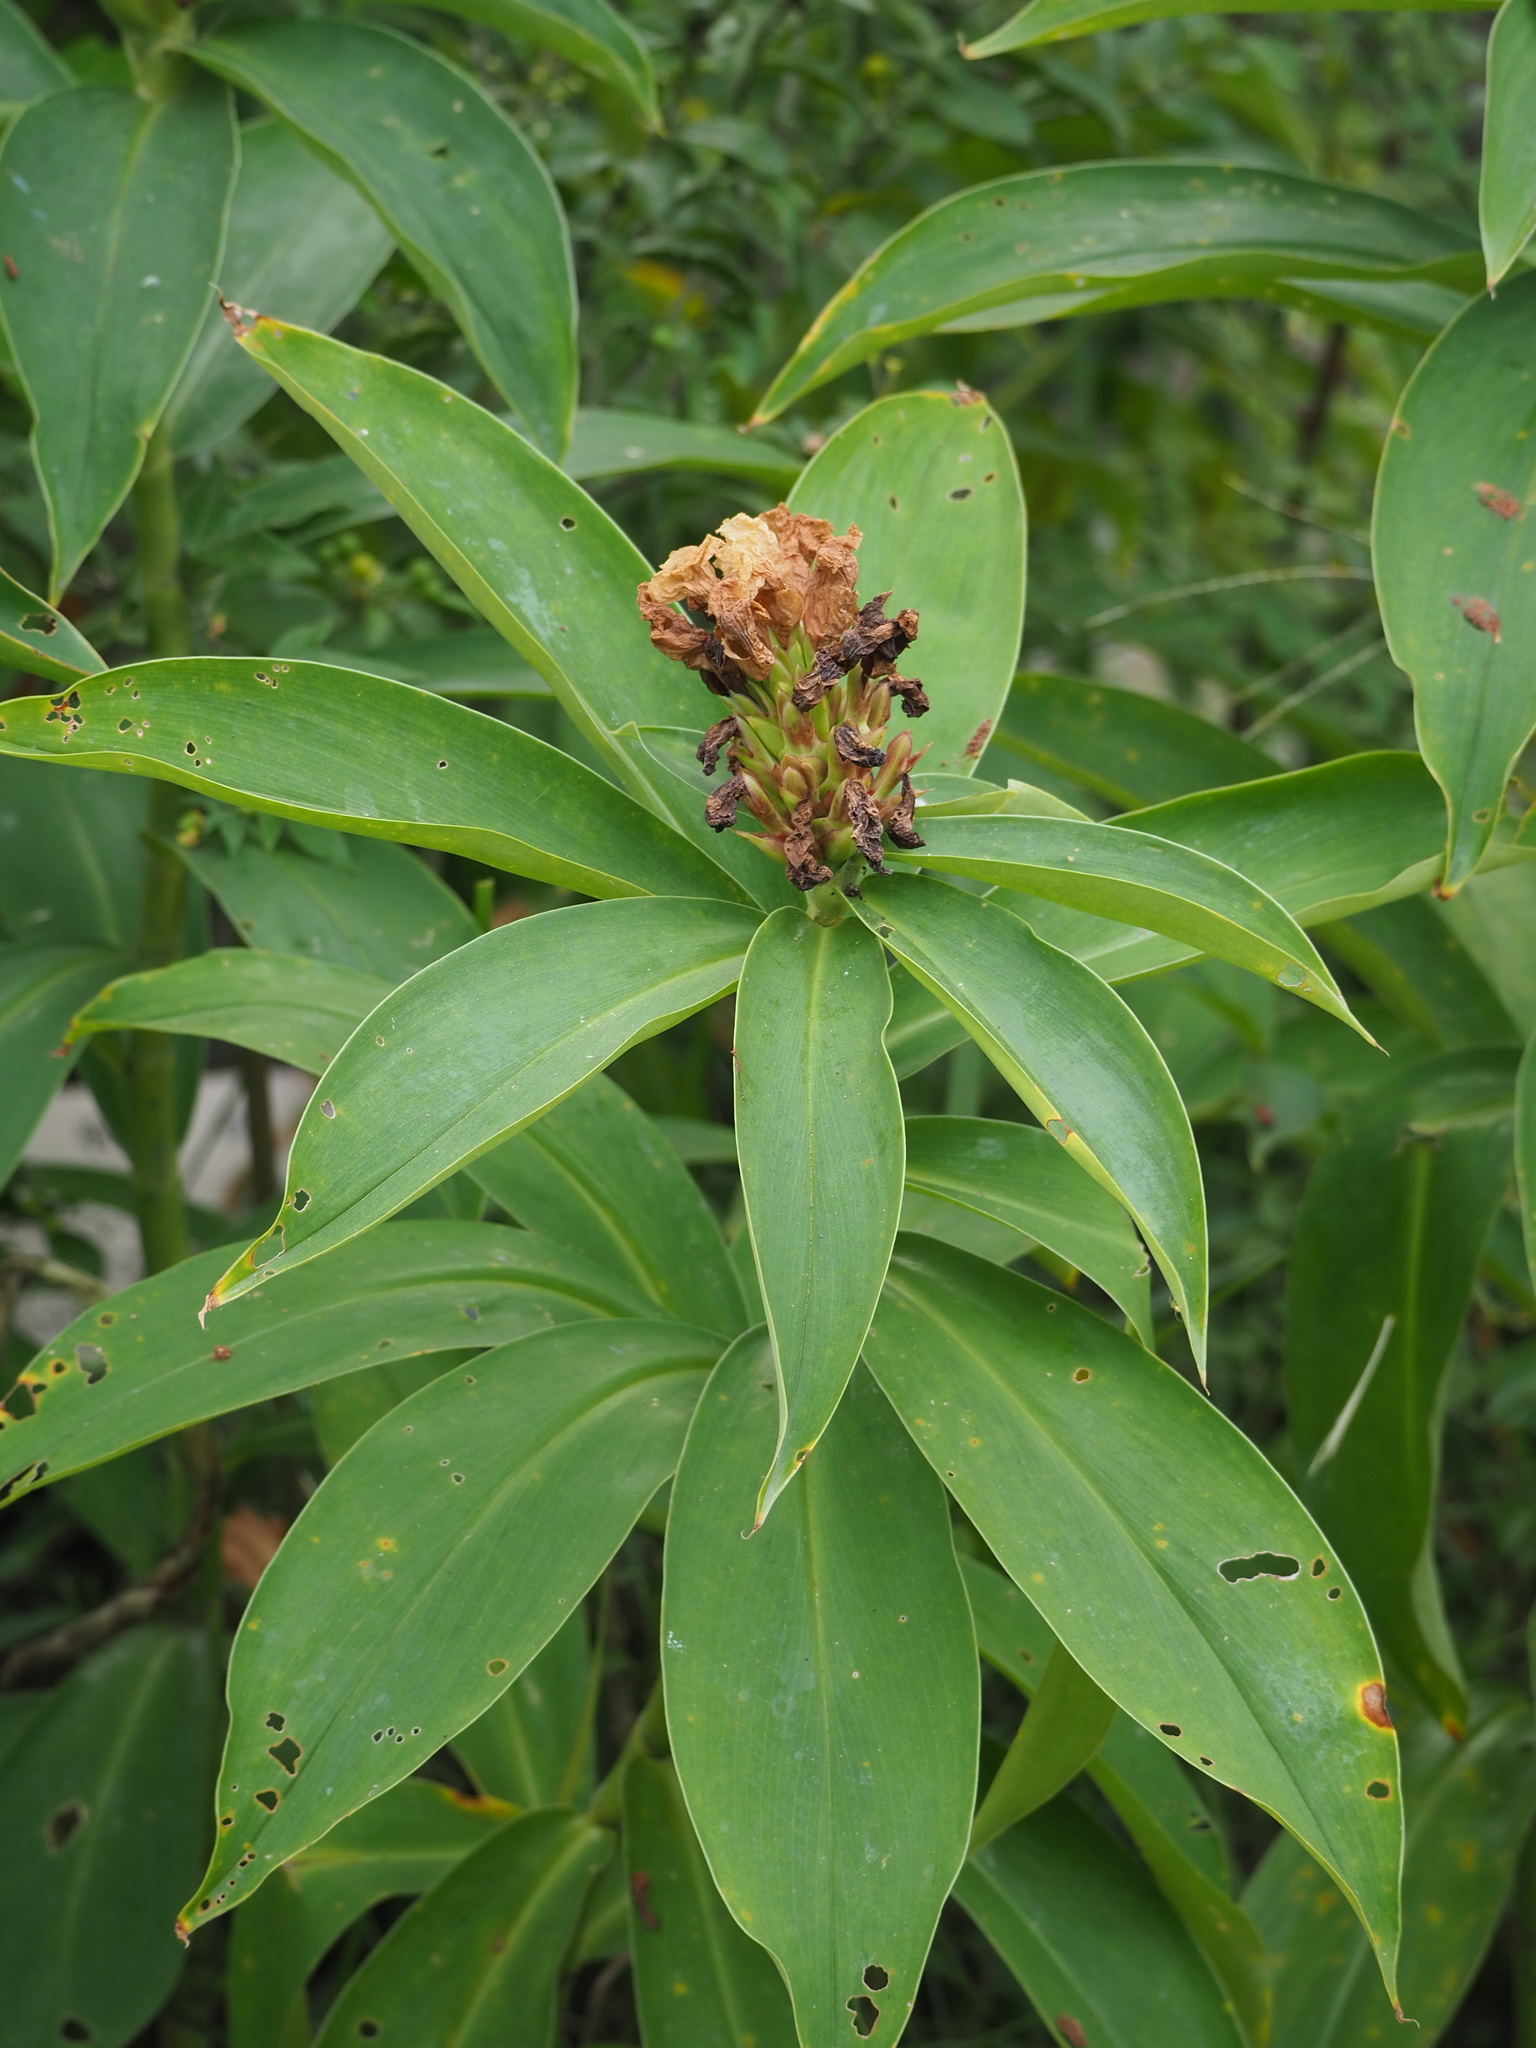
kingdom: Plantae
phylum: Tracheophyta
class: Liliopsida
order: Zingiberales
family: Costaceae
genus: Hellenia
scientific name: Hellenia speciosa
